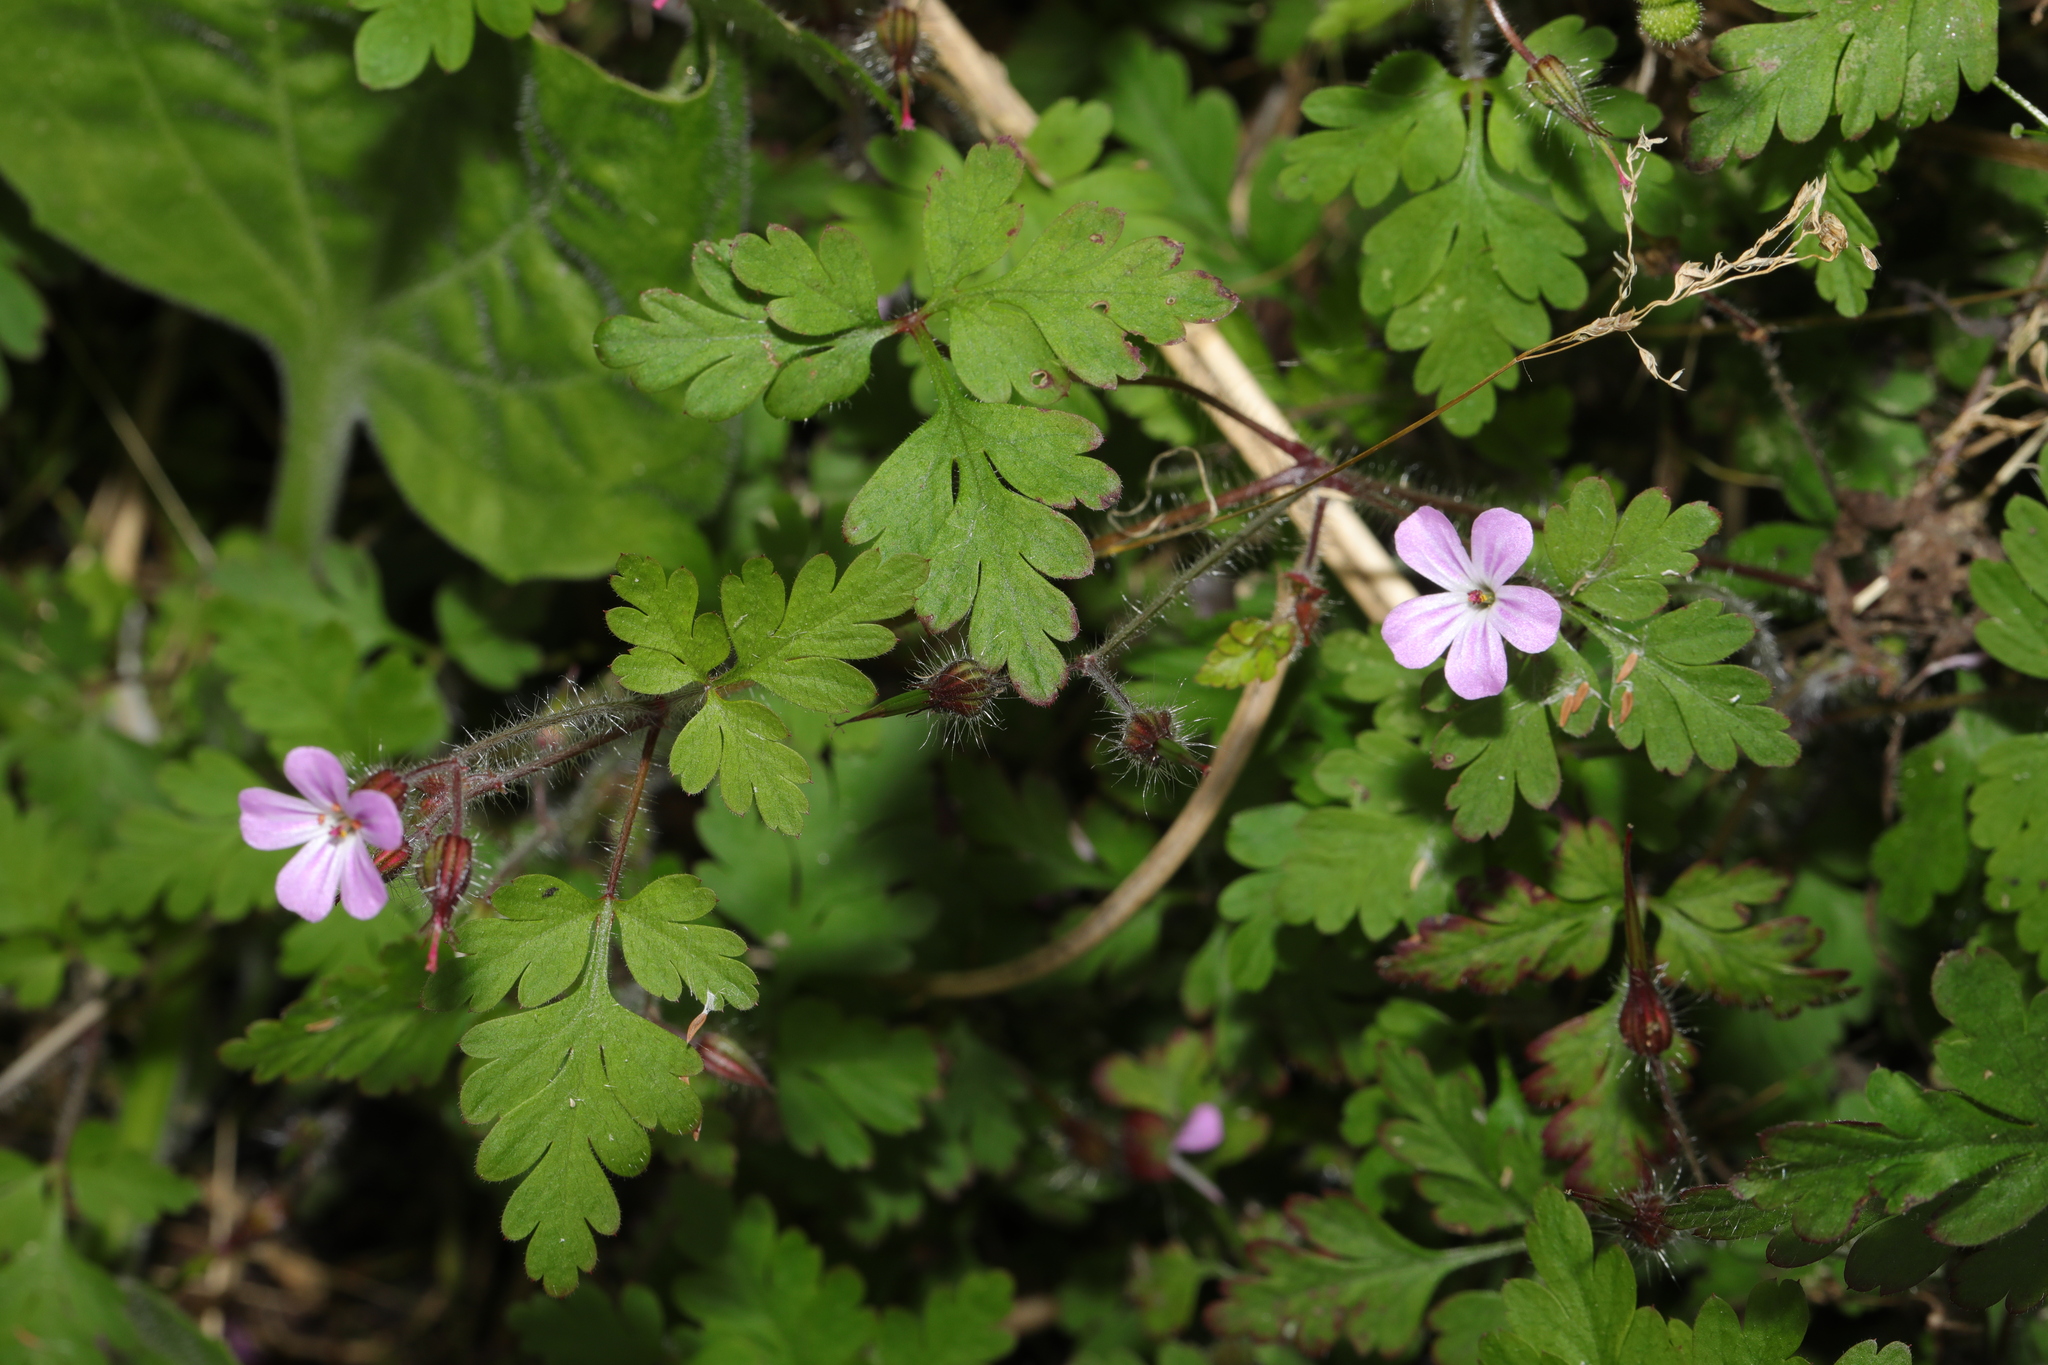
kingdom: Plantae
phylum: Tracheophyta
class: Magnoliopsida
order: Geraniales
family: Geraniaceae
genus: Geranium
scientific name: Geranium robertianum
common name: Herb-robert
